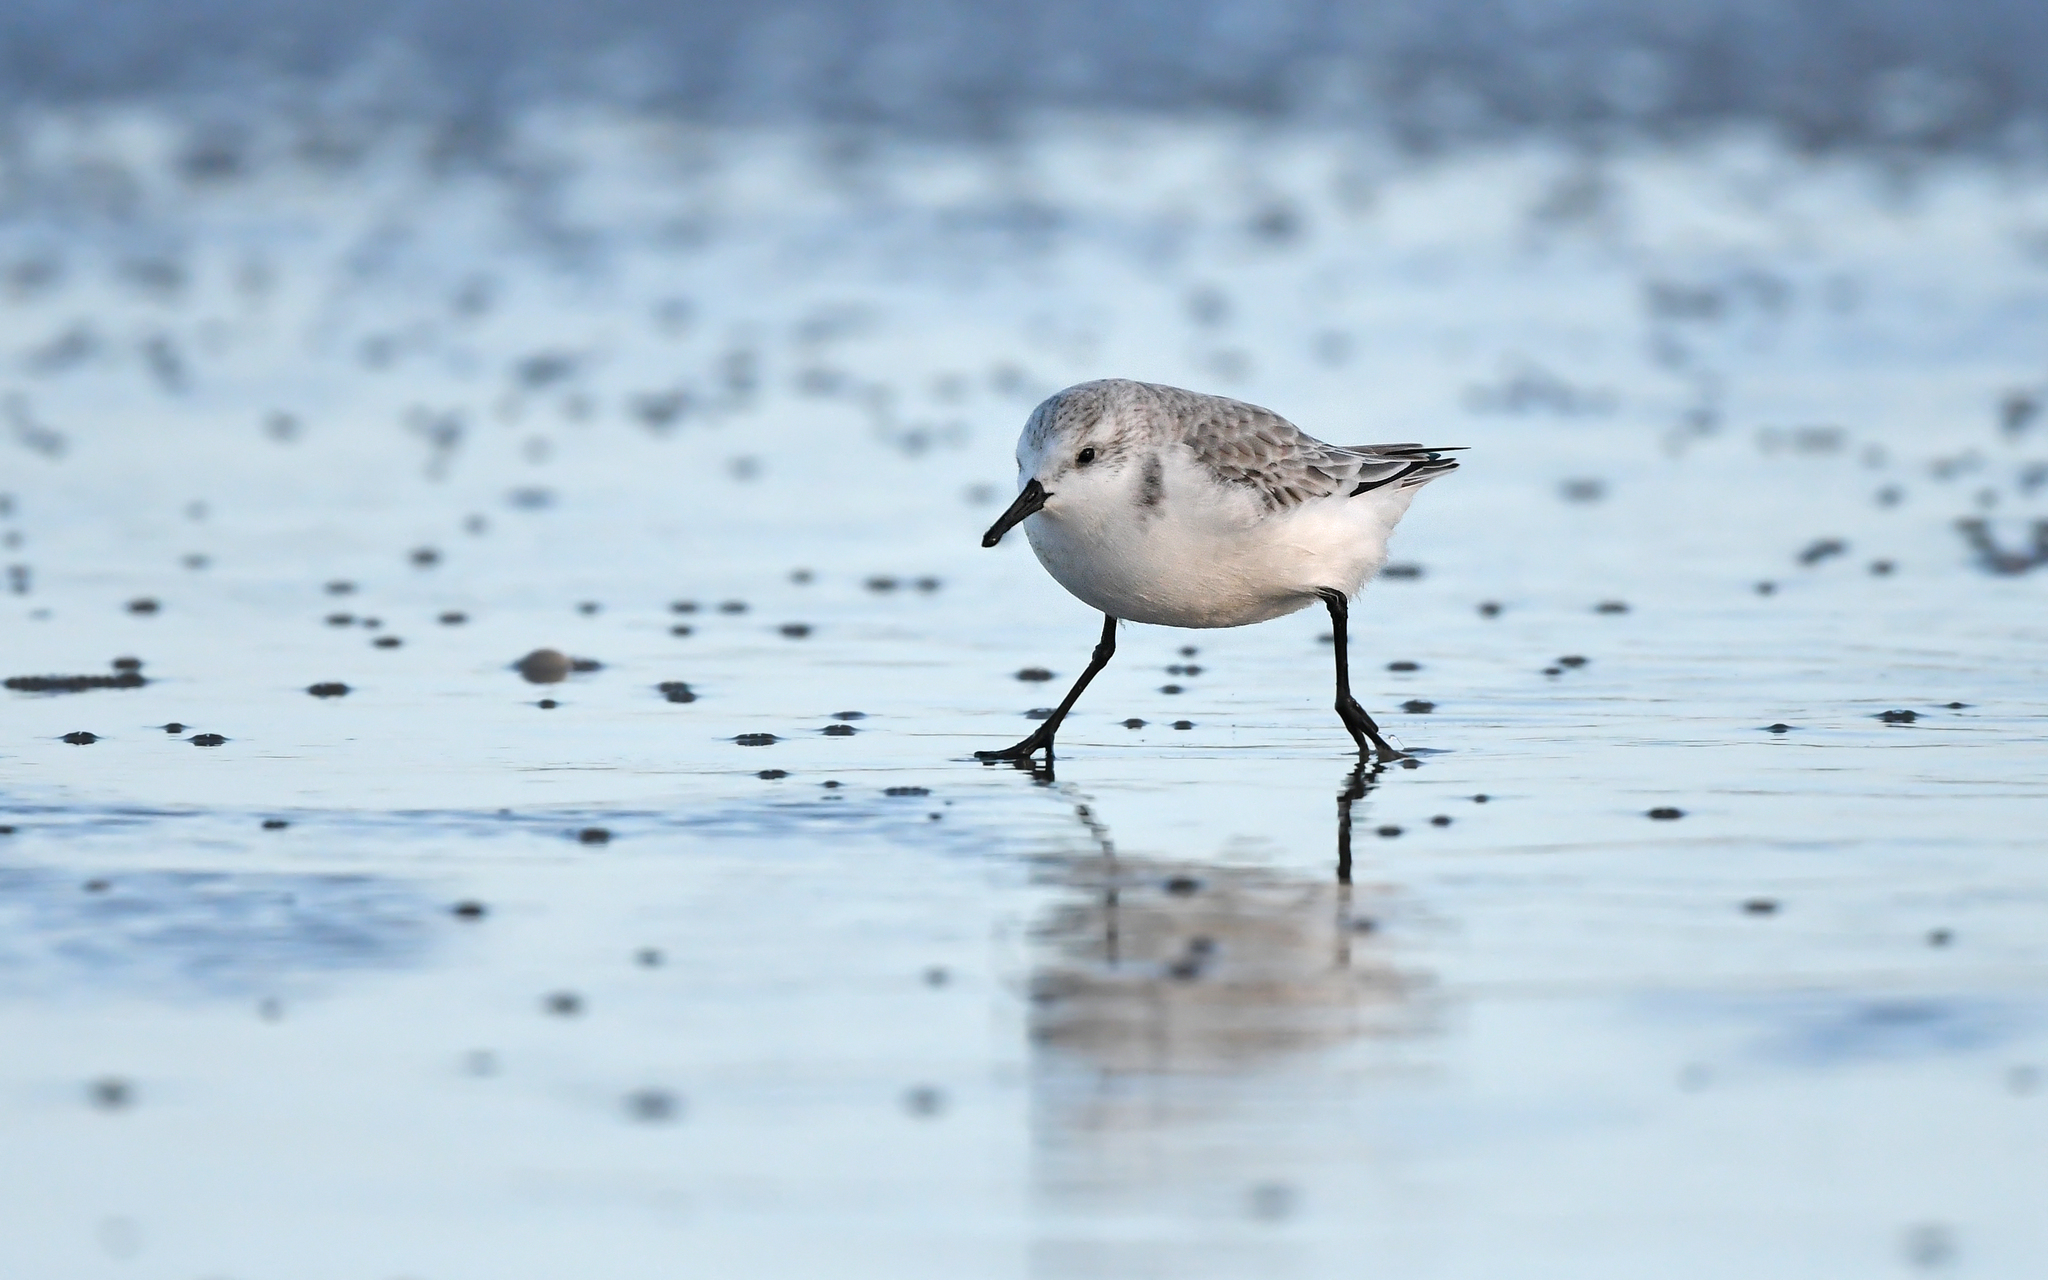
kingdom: Animalia
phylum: Chordata
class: Aves
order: Charadriiformes
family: Scolopacidae
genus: Calidris
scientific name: Calidris alba
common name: Sanderling
